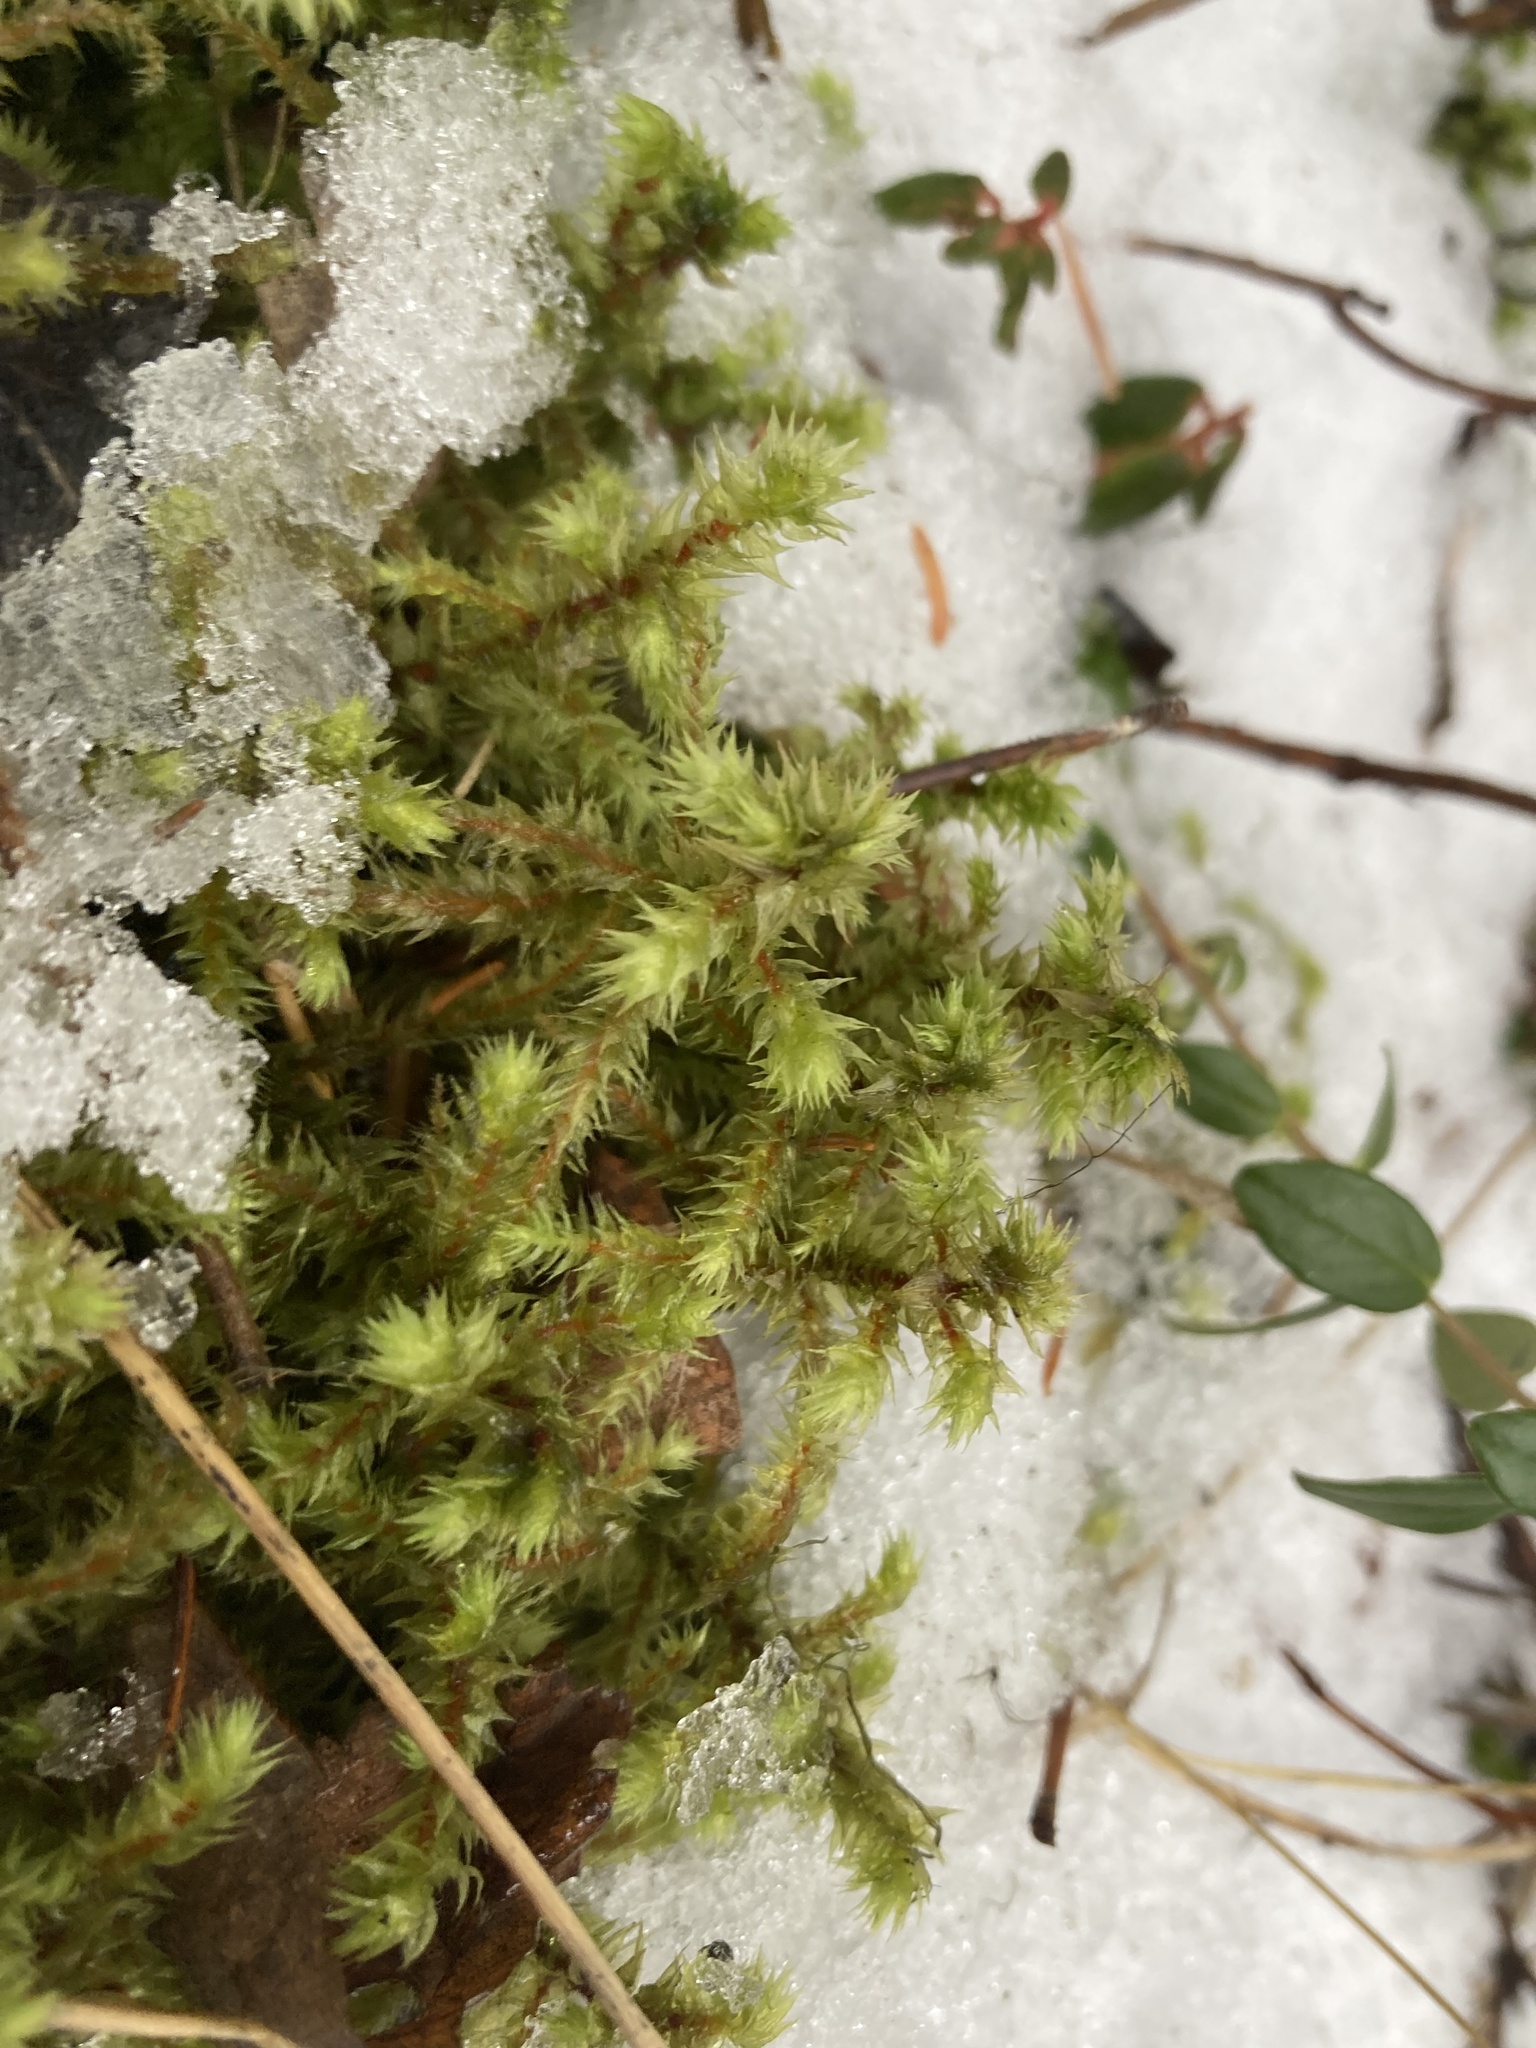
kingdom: Plantae
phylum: Bryophyta
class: Bryopsida
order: Hypnales
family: Hylocomiaceae
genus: Hylocomiadelphus
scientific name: Hylocomiadelphus triquetrus
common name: Rough goose neck moss
